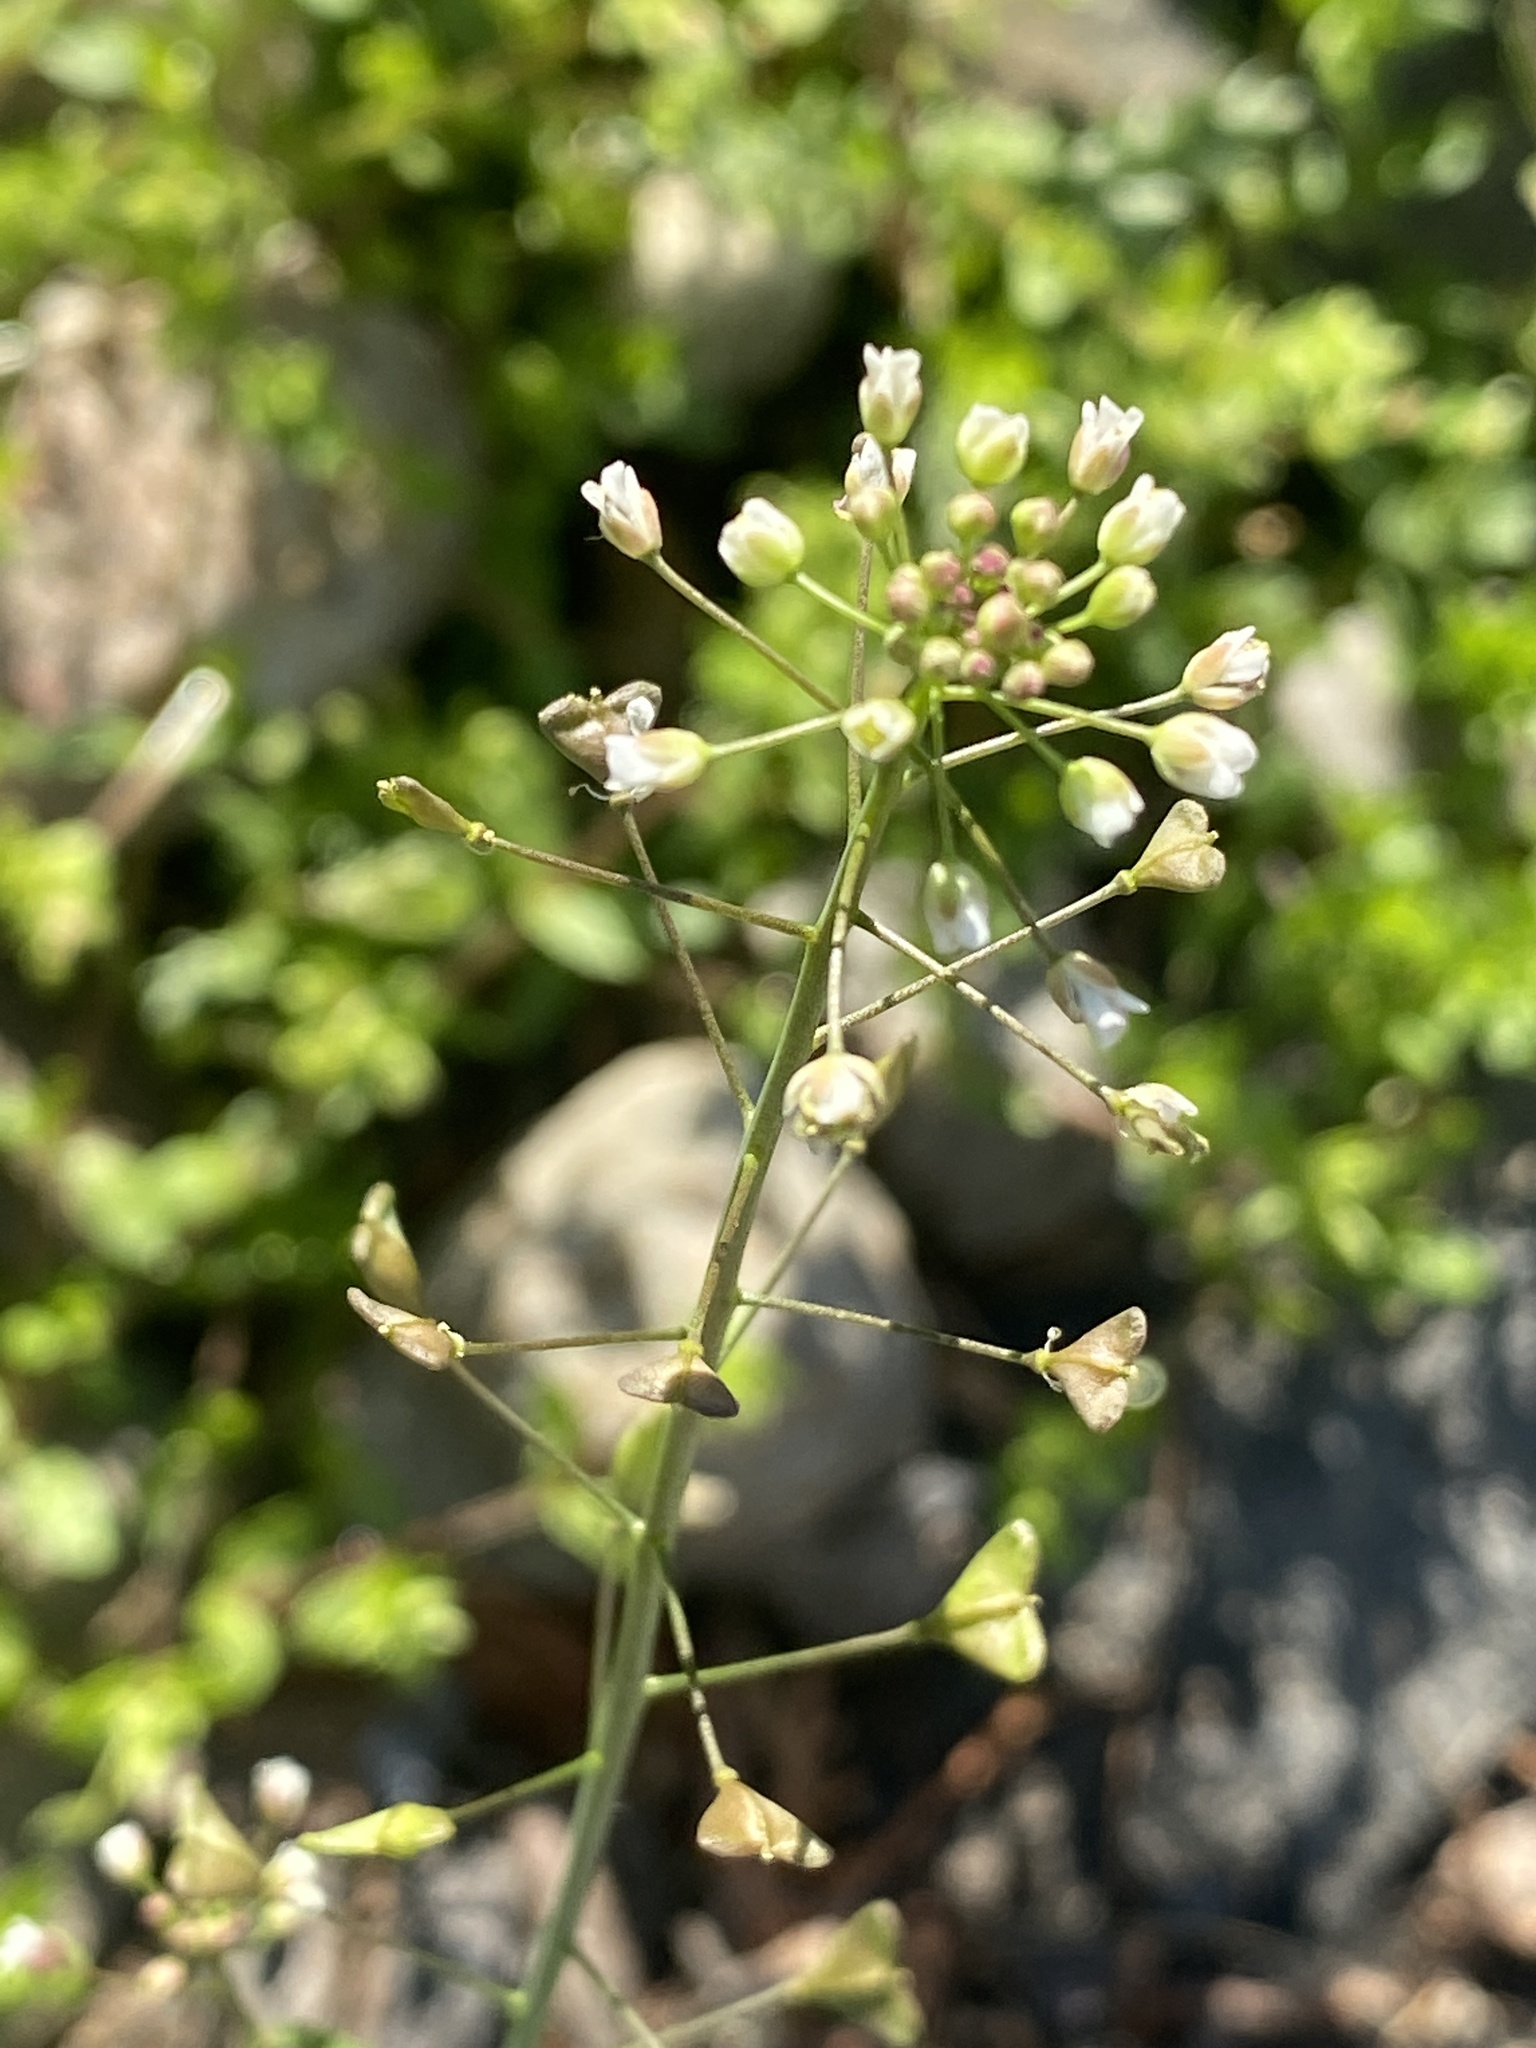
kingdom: Plantae
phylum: Tracheophyta
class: Magnoliopsida
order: Brassicales
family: Brassicaceae
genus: Capsella
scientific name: Capsella bursa-pastoris
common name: Shepherd's purse
